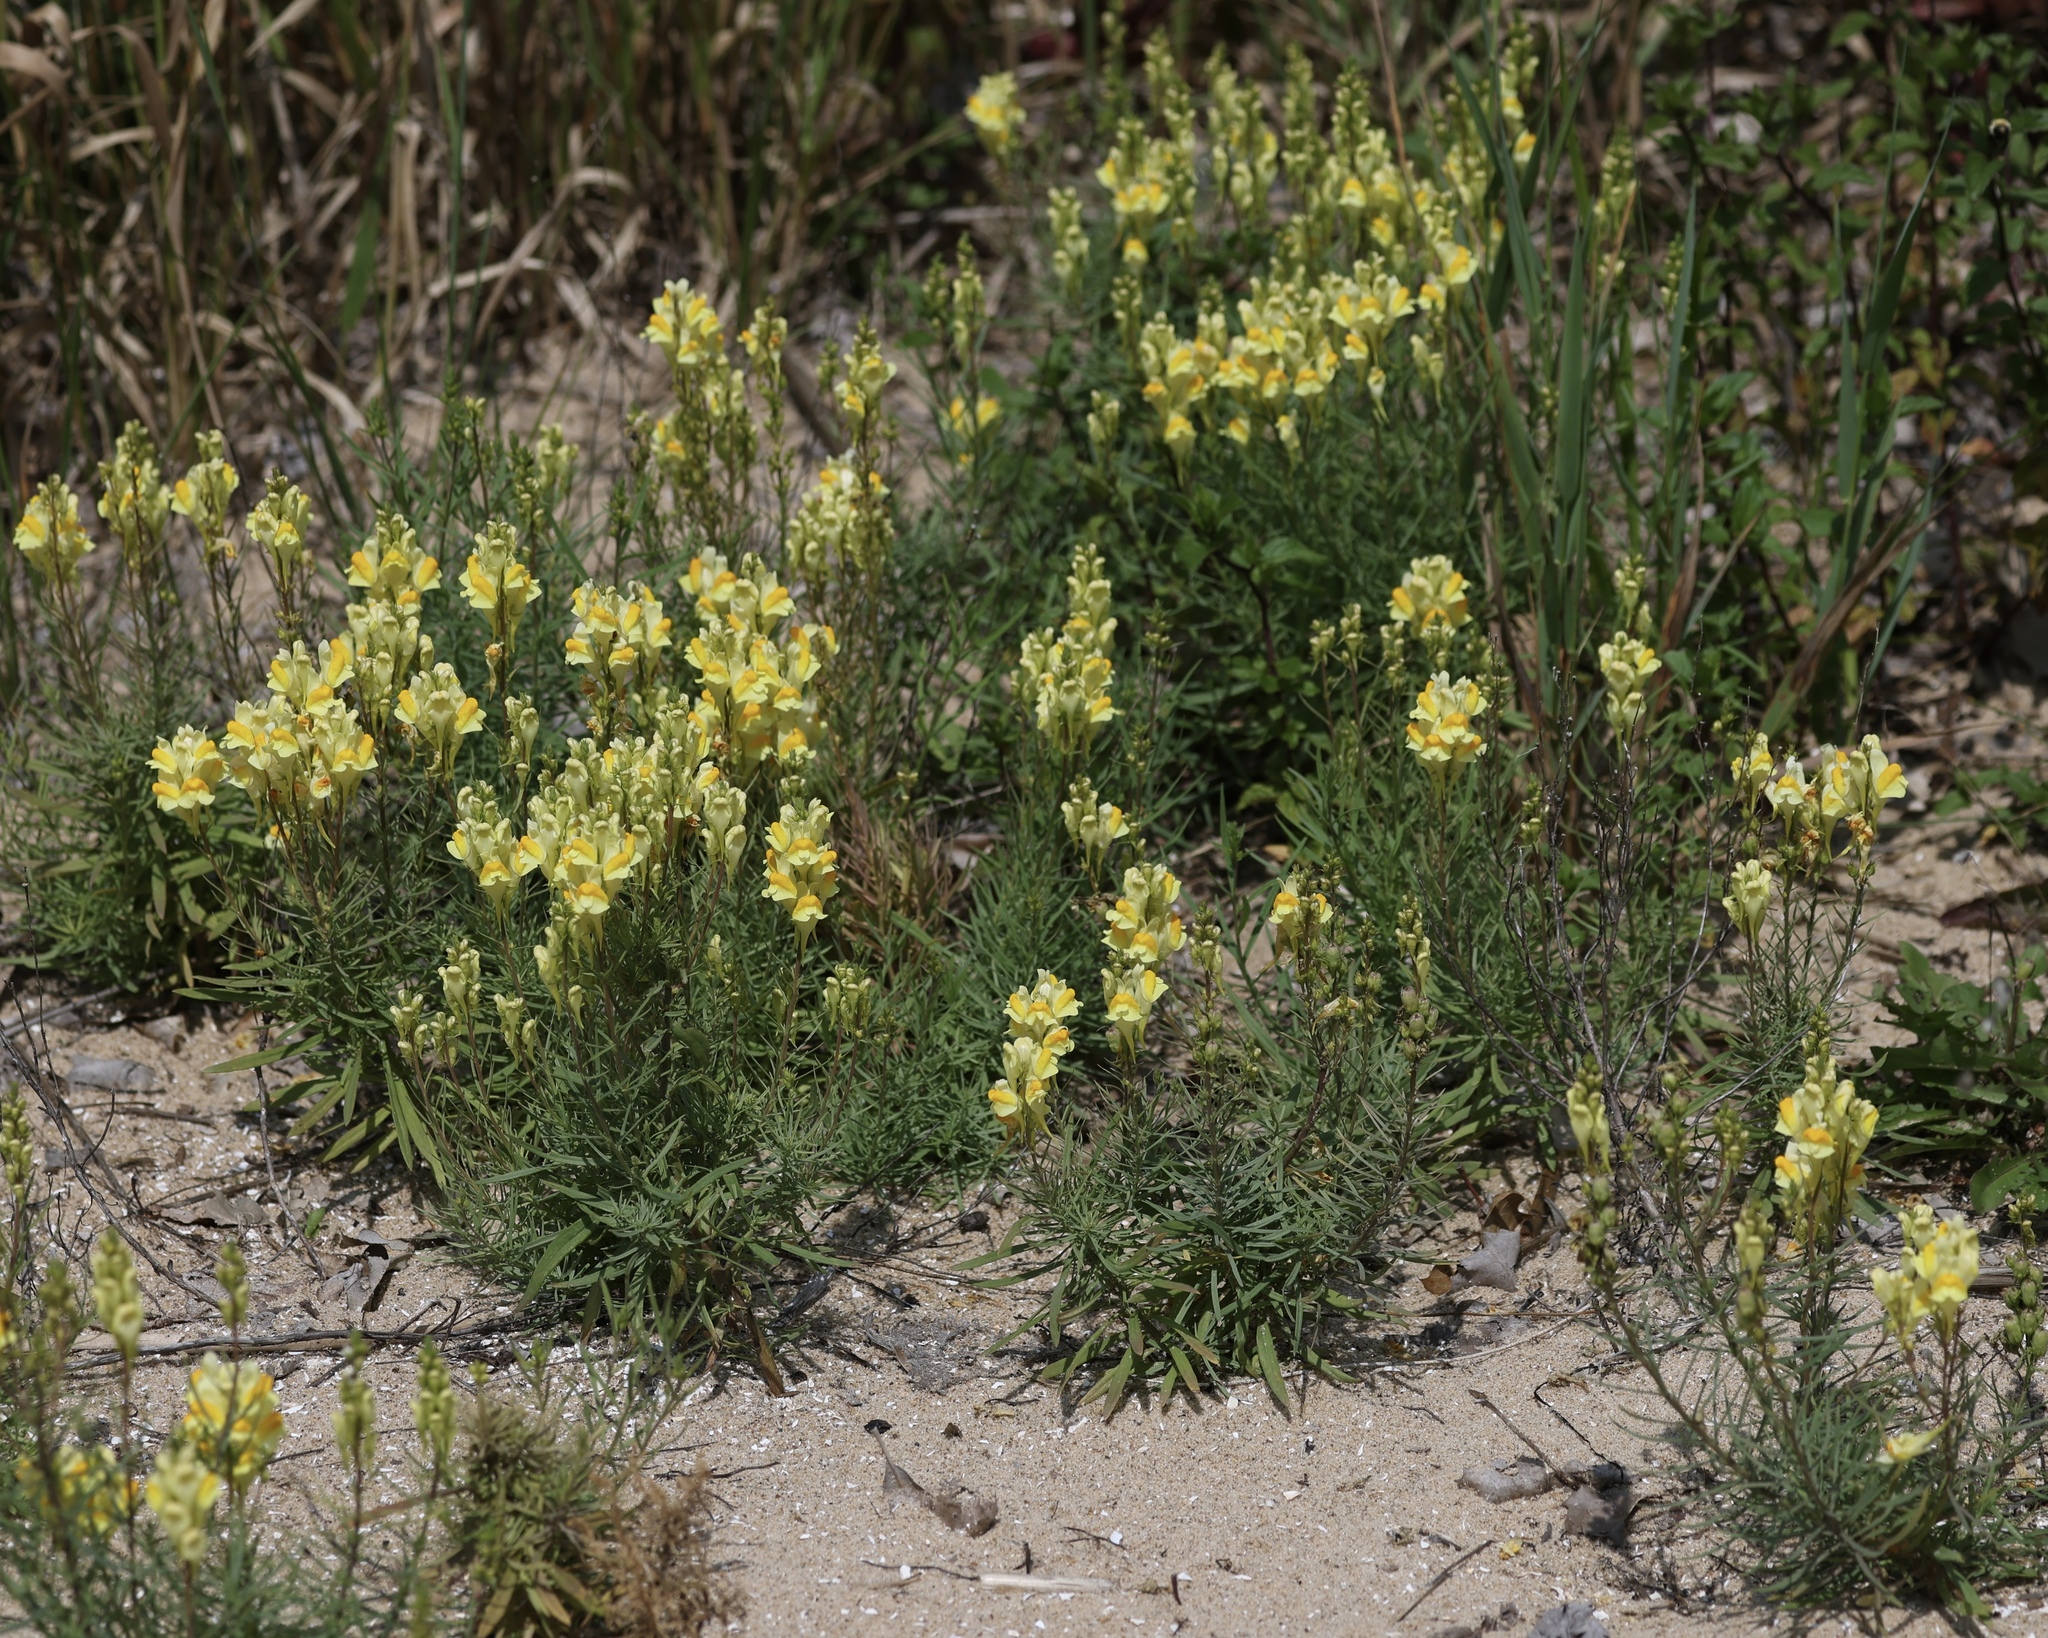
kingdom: Plantae
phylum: Tracheophyta
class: Magnoliopsida
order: Lamiales
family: Plantaginaceae
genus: Linaria
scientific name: Linaria vulgaris
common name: Butter and eggs
